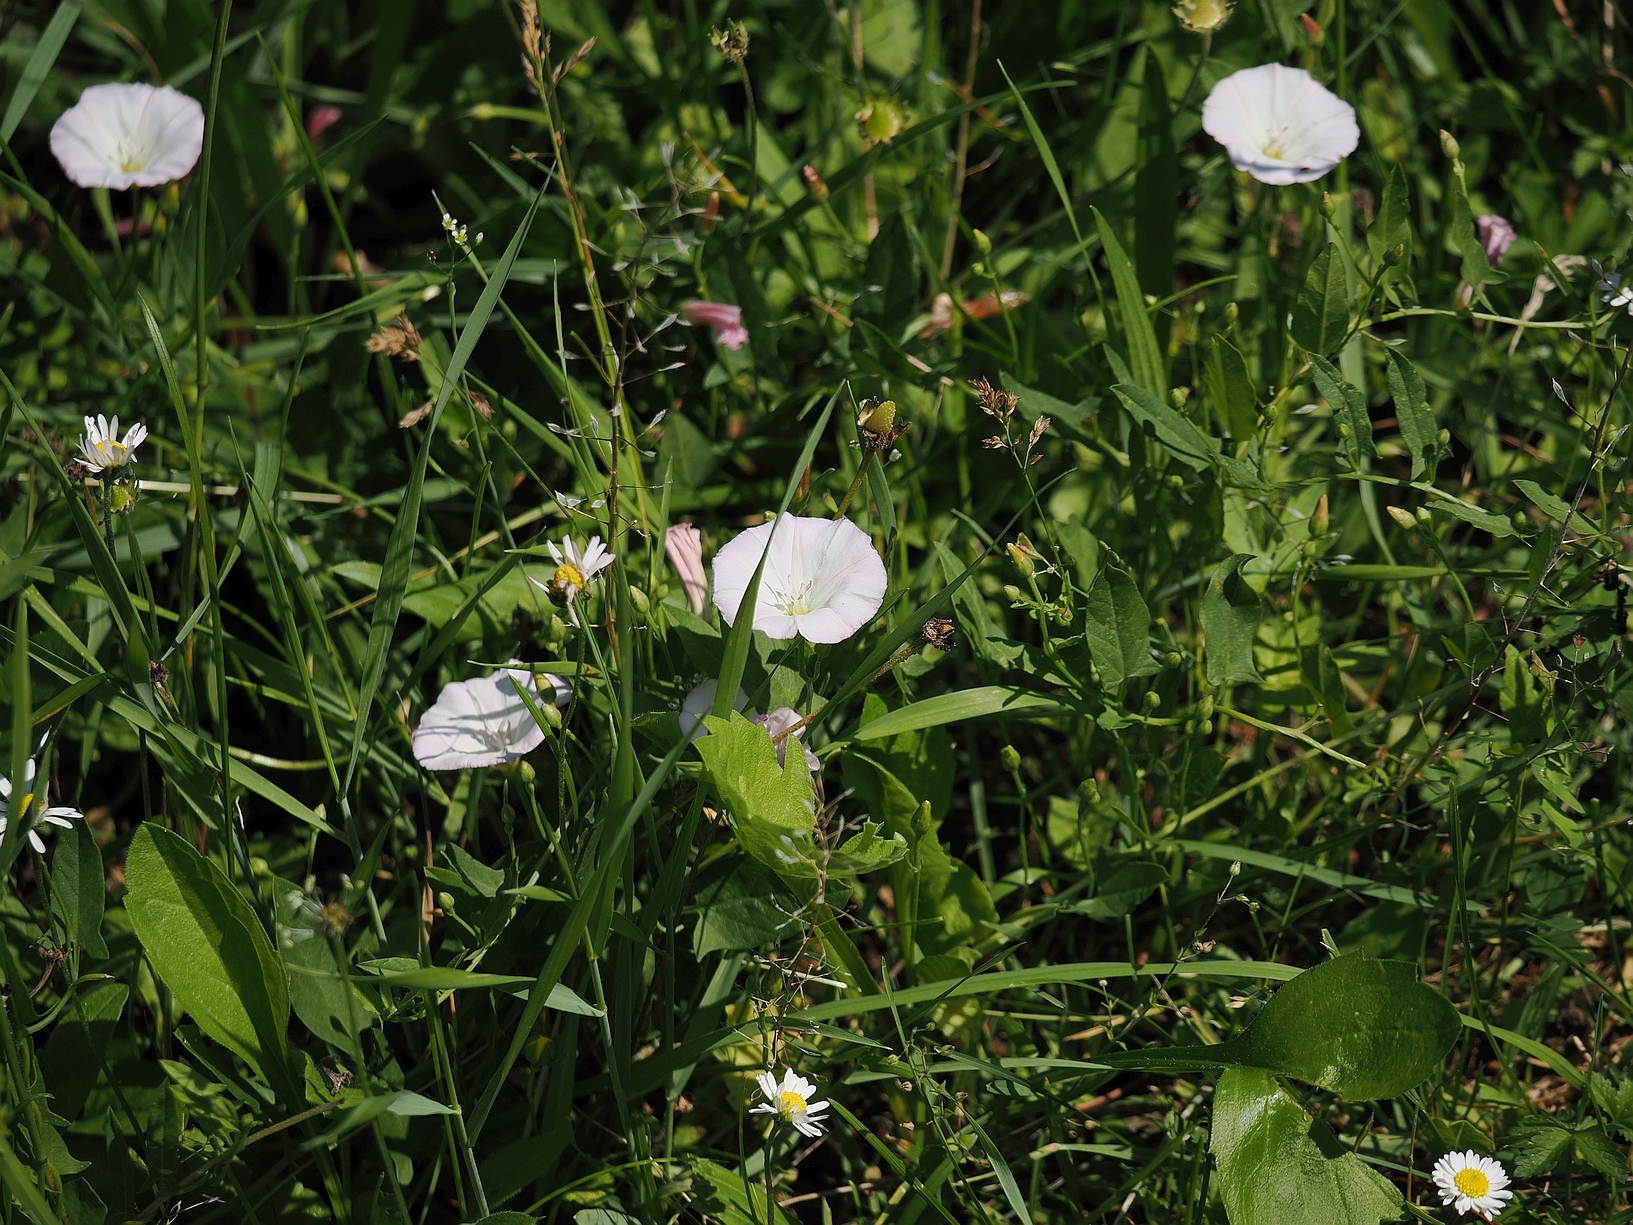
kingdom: Plantae
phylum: Tracheophyta
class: Magnoliopsida
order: Solanales
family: Convolvulaceae
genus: Convolvulus
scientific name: Convolvulus arvensis
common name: Field bindweed
